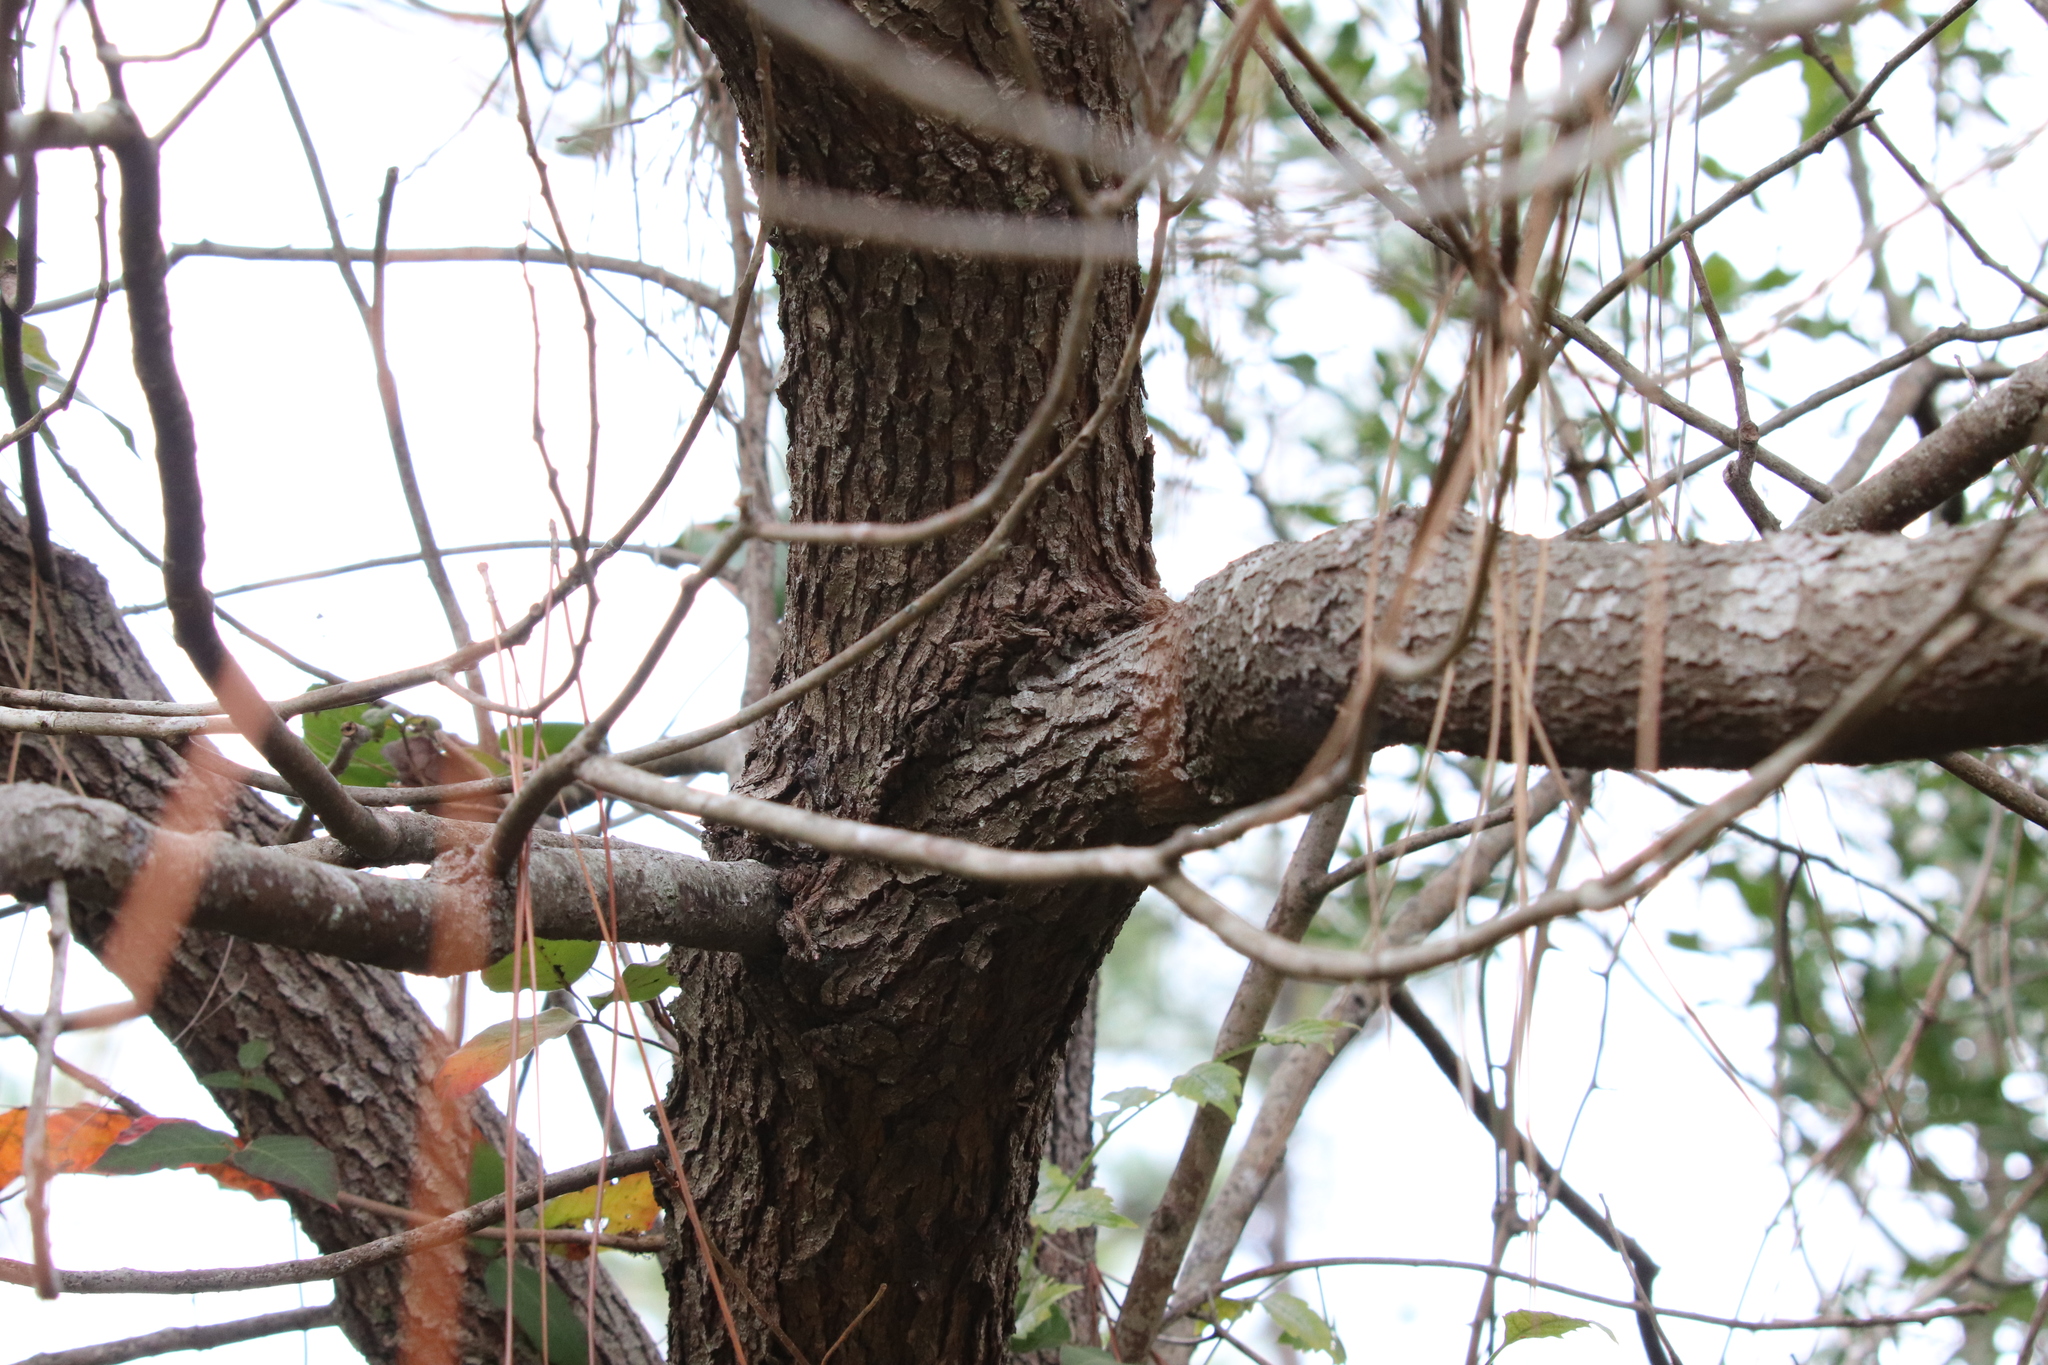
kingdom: Plantae
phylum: Tracheophyta
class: Magnoliopsida
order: Laurales
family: Lauraceae
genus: Cinnamomum
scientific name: Cinnamomum camphora
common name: Camphortree
